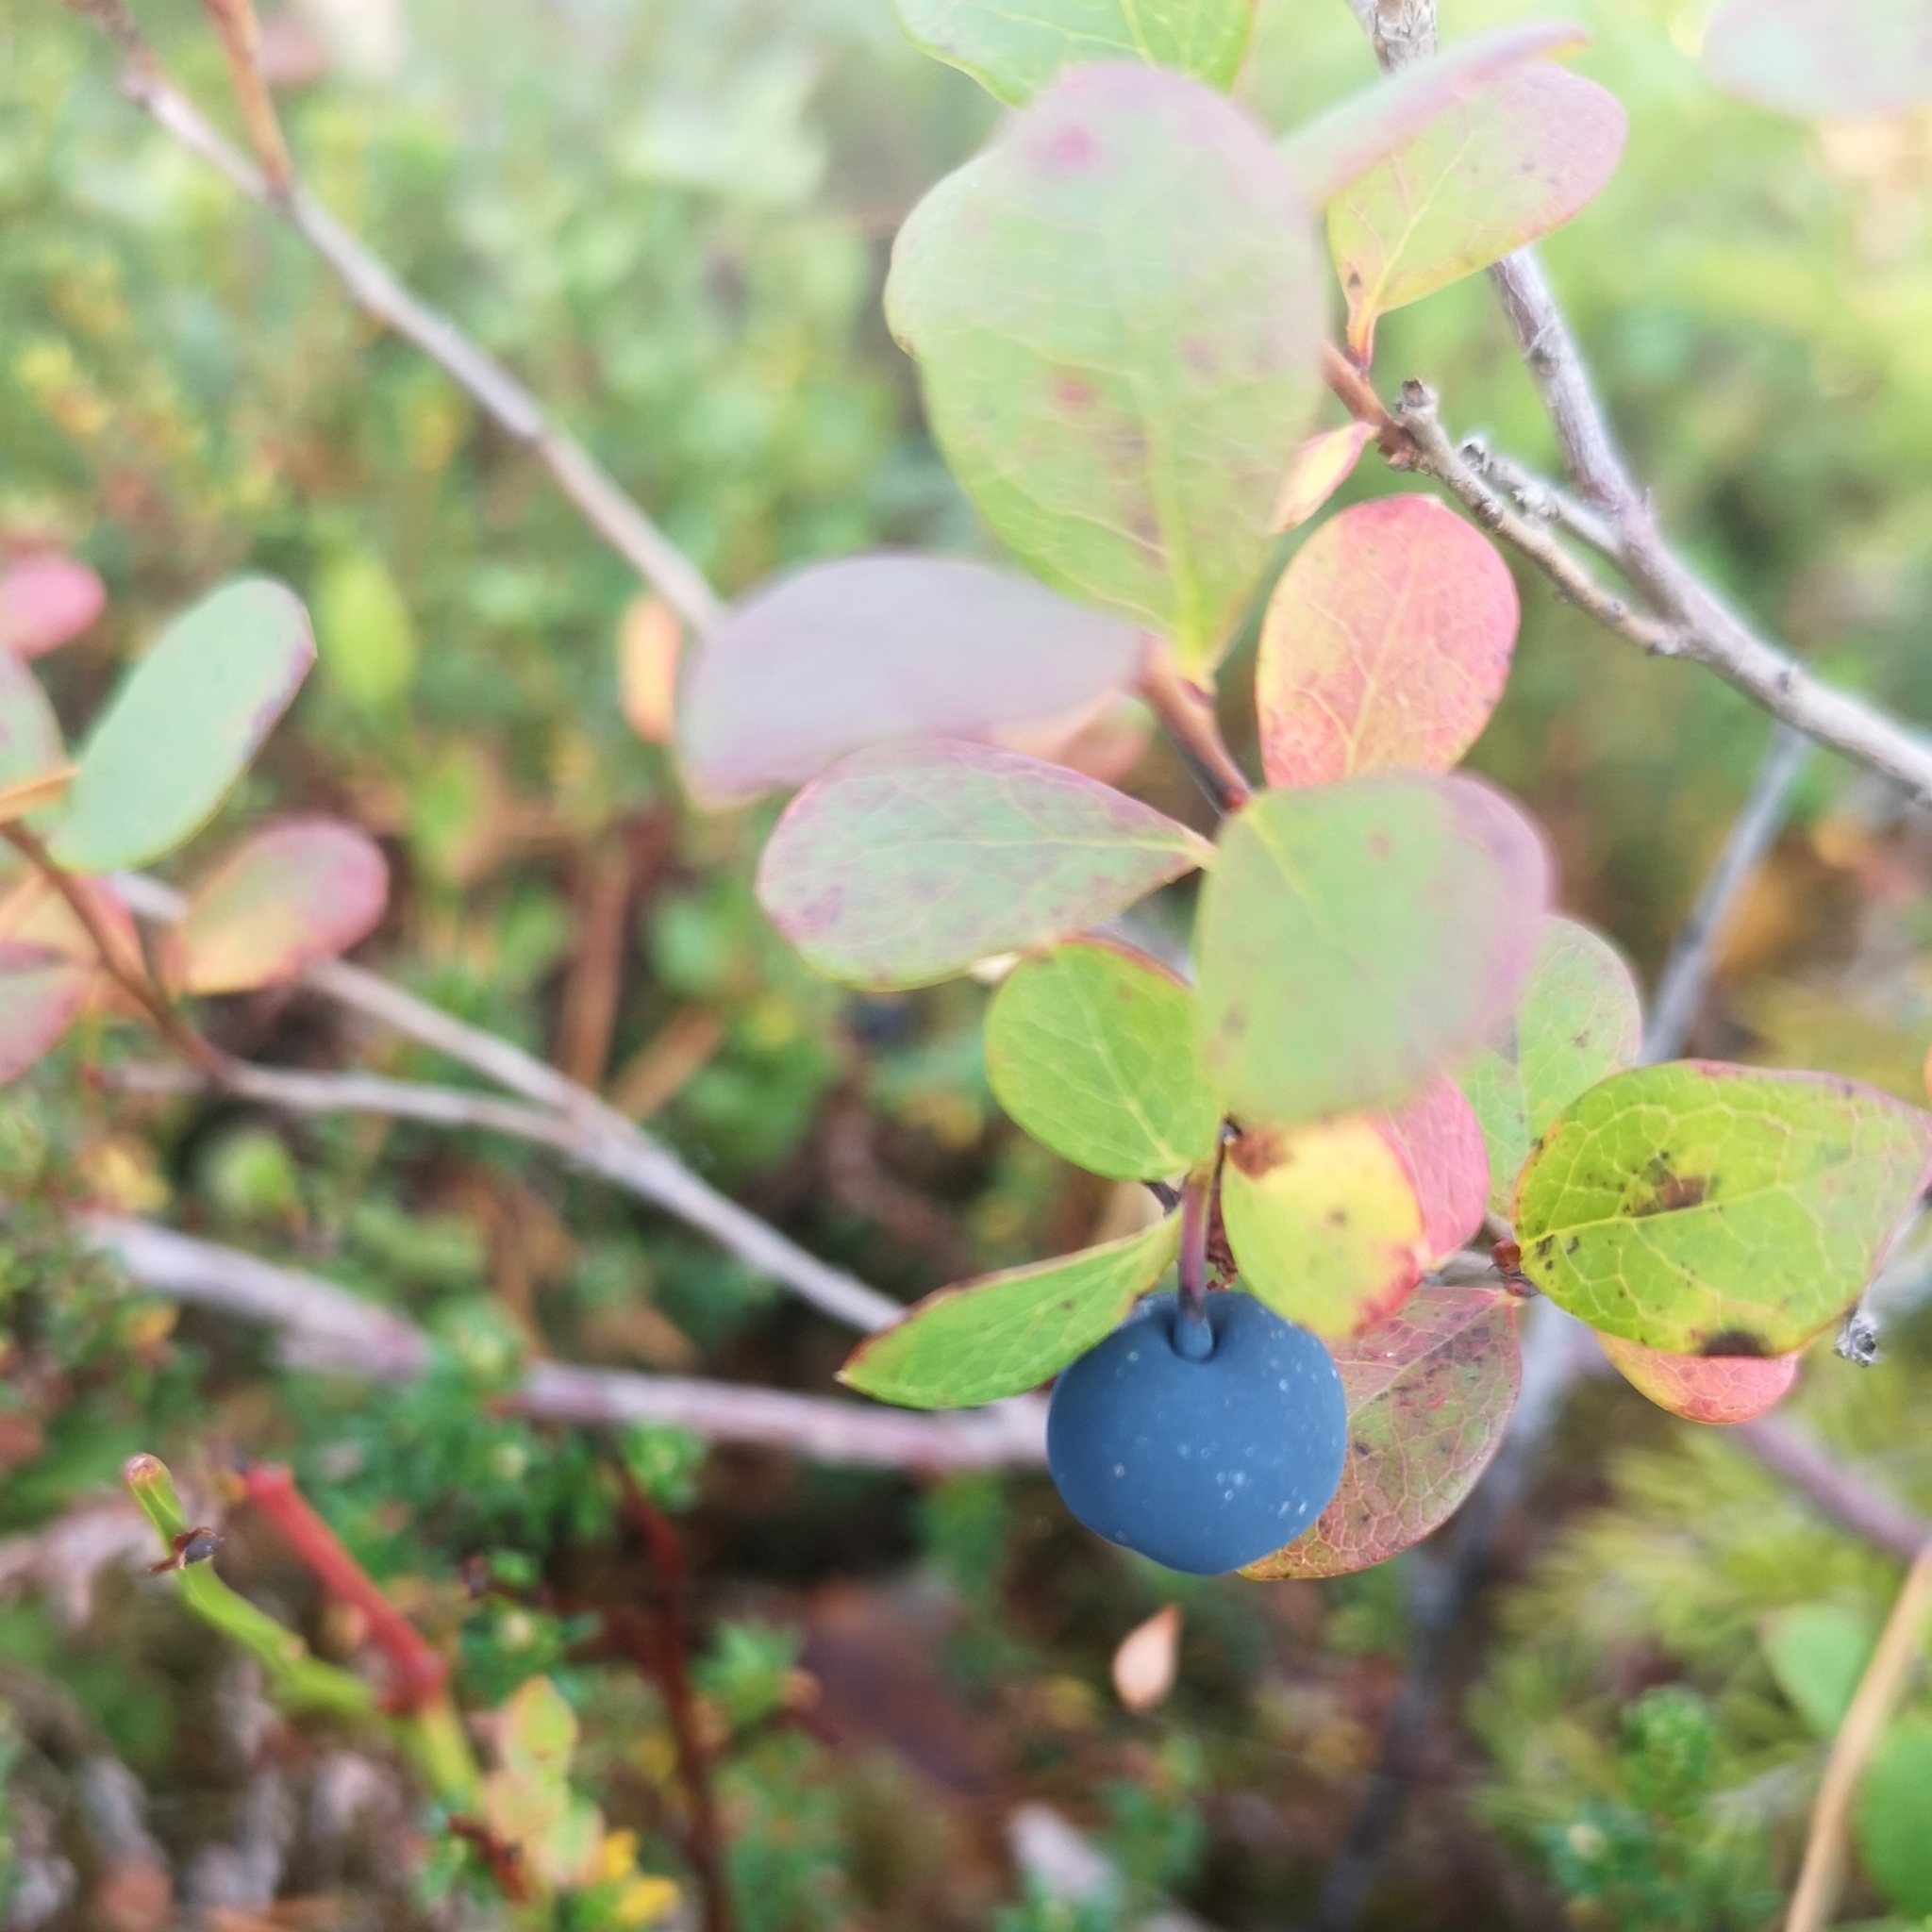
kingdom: Plantae
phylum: Tracheophyta
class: Magnoliopsida
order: Ericales
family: Ericaceae
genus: Vaccinium
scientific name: Vaccinium uliginosum
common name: Bog bilberry
